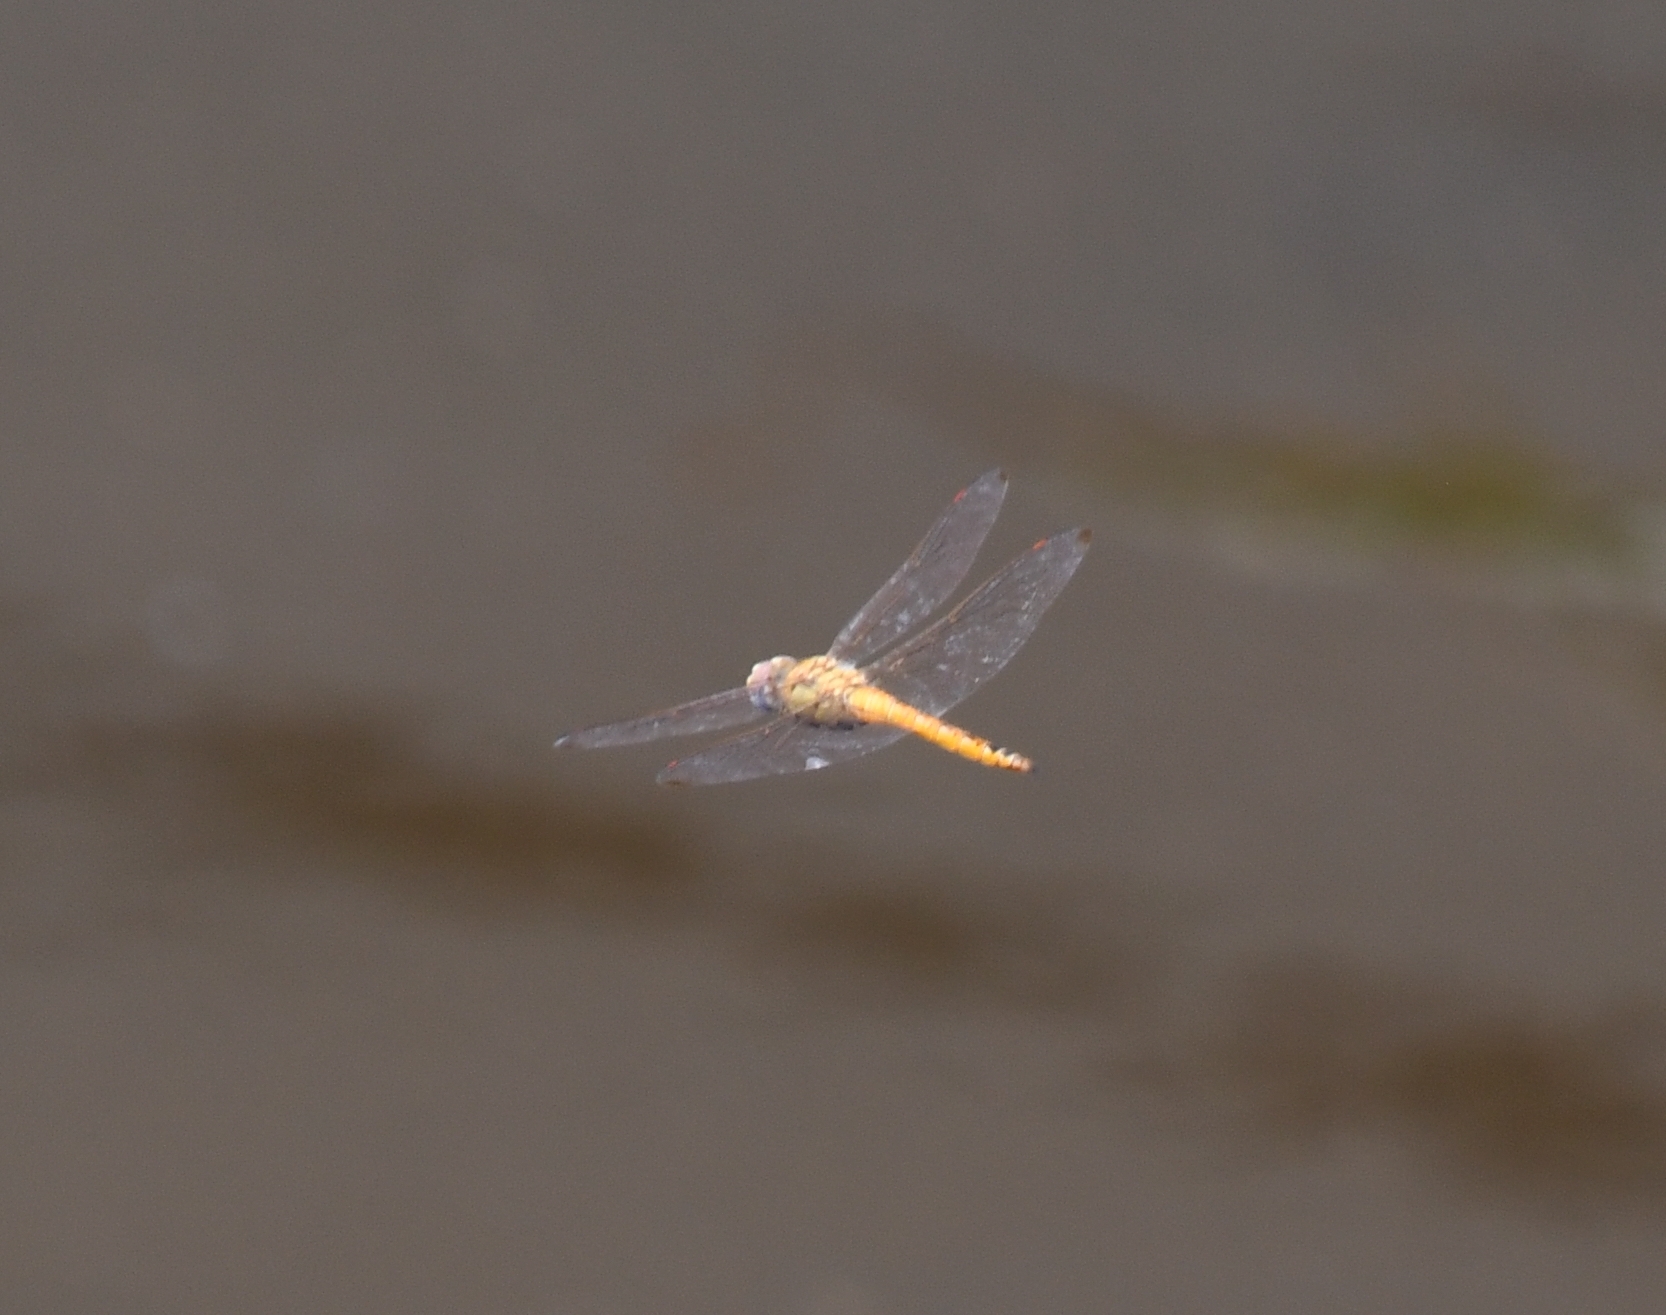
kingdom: Animalia
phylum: Arthropoda
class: Insecta
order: Odonata
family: Libellulidae
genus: Pantala
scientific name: Pantala flavescens
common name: Wandering glider
